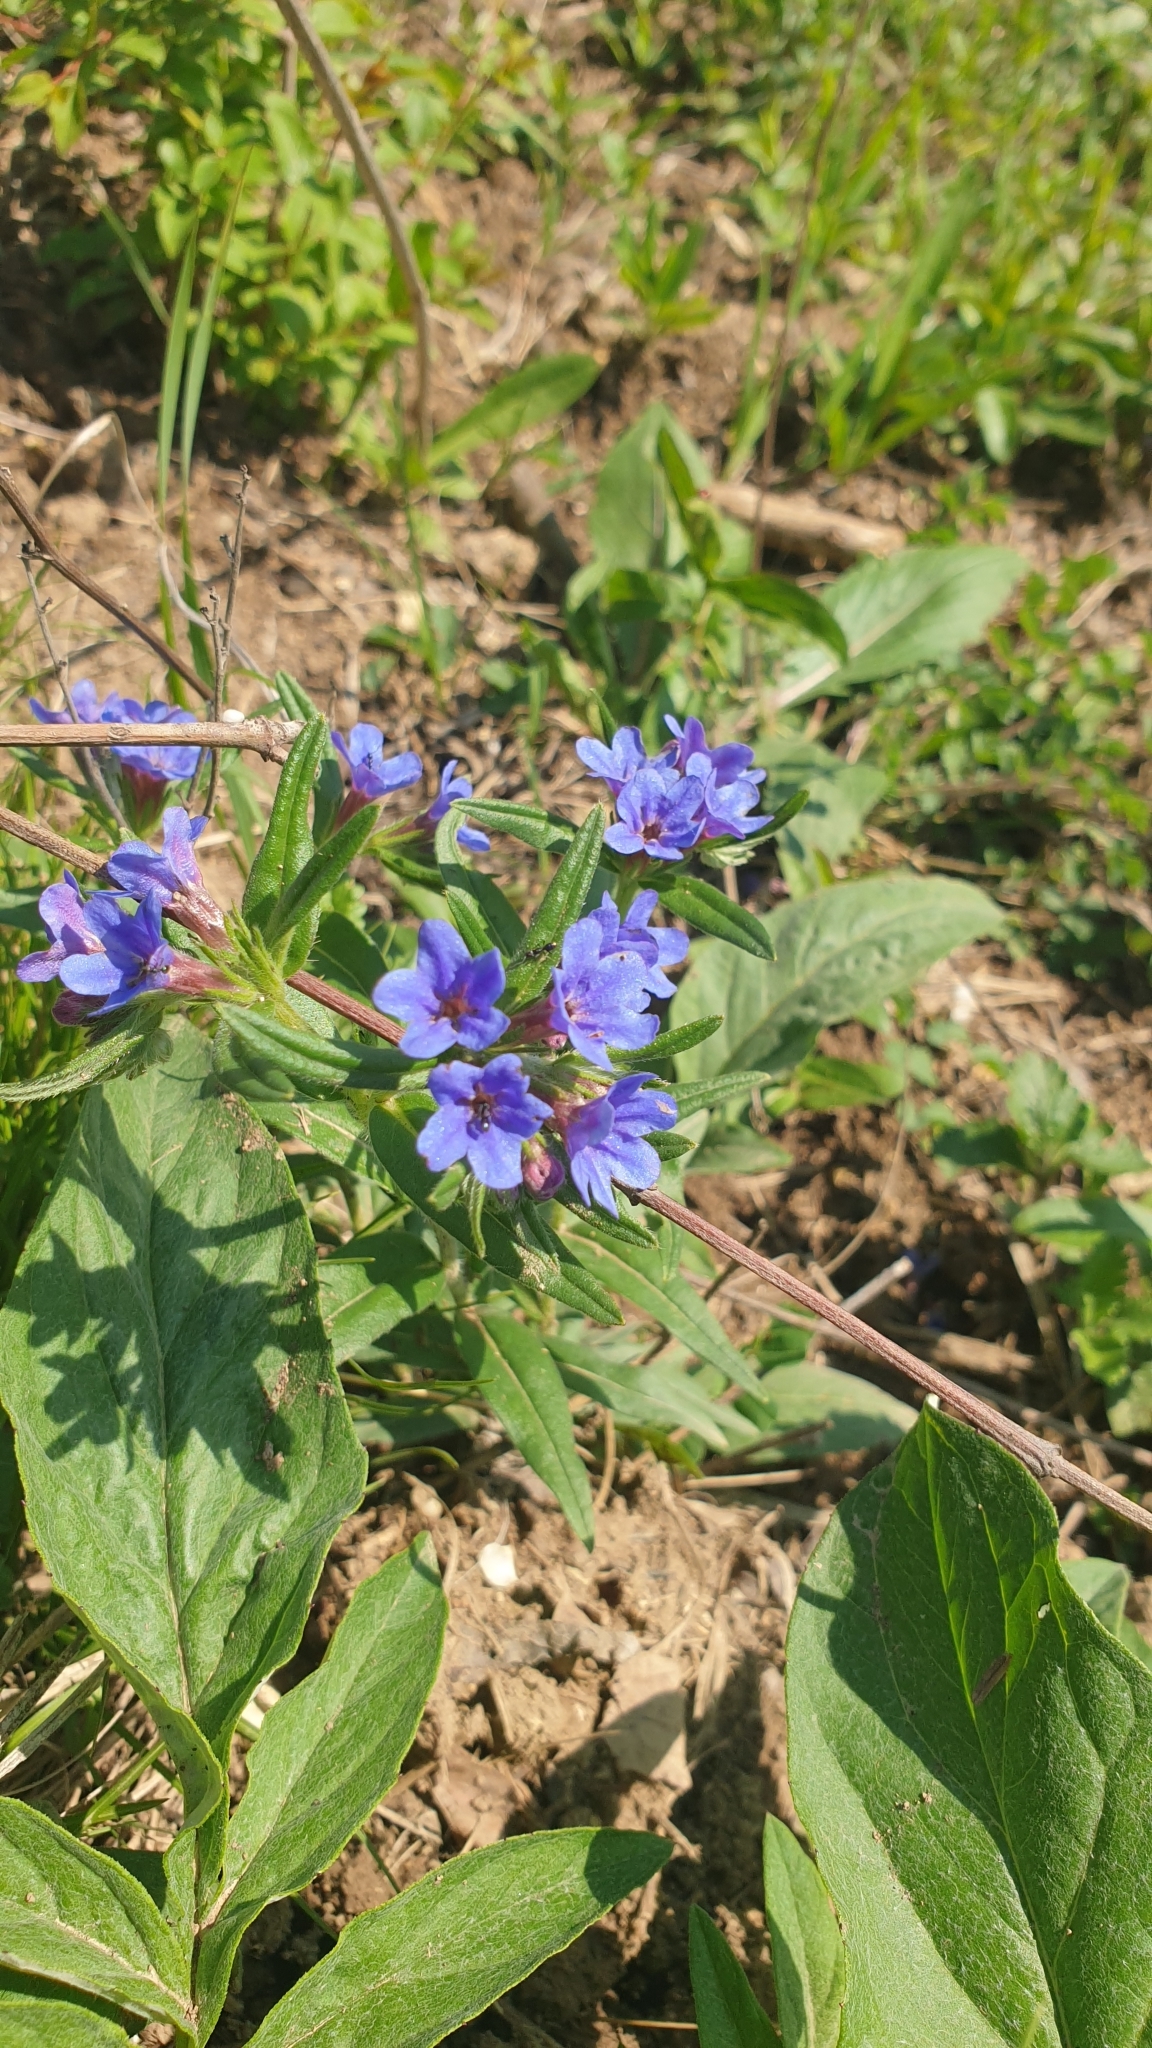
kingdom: Plantae
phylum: Tracheophyta
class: Magnoliopsida
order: Boraginales
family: Boraginaceae
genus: Aegonychon
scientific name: Aegonychon purpurocaeruleum
